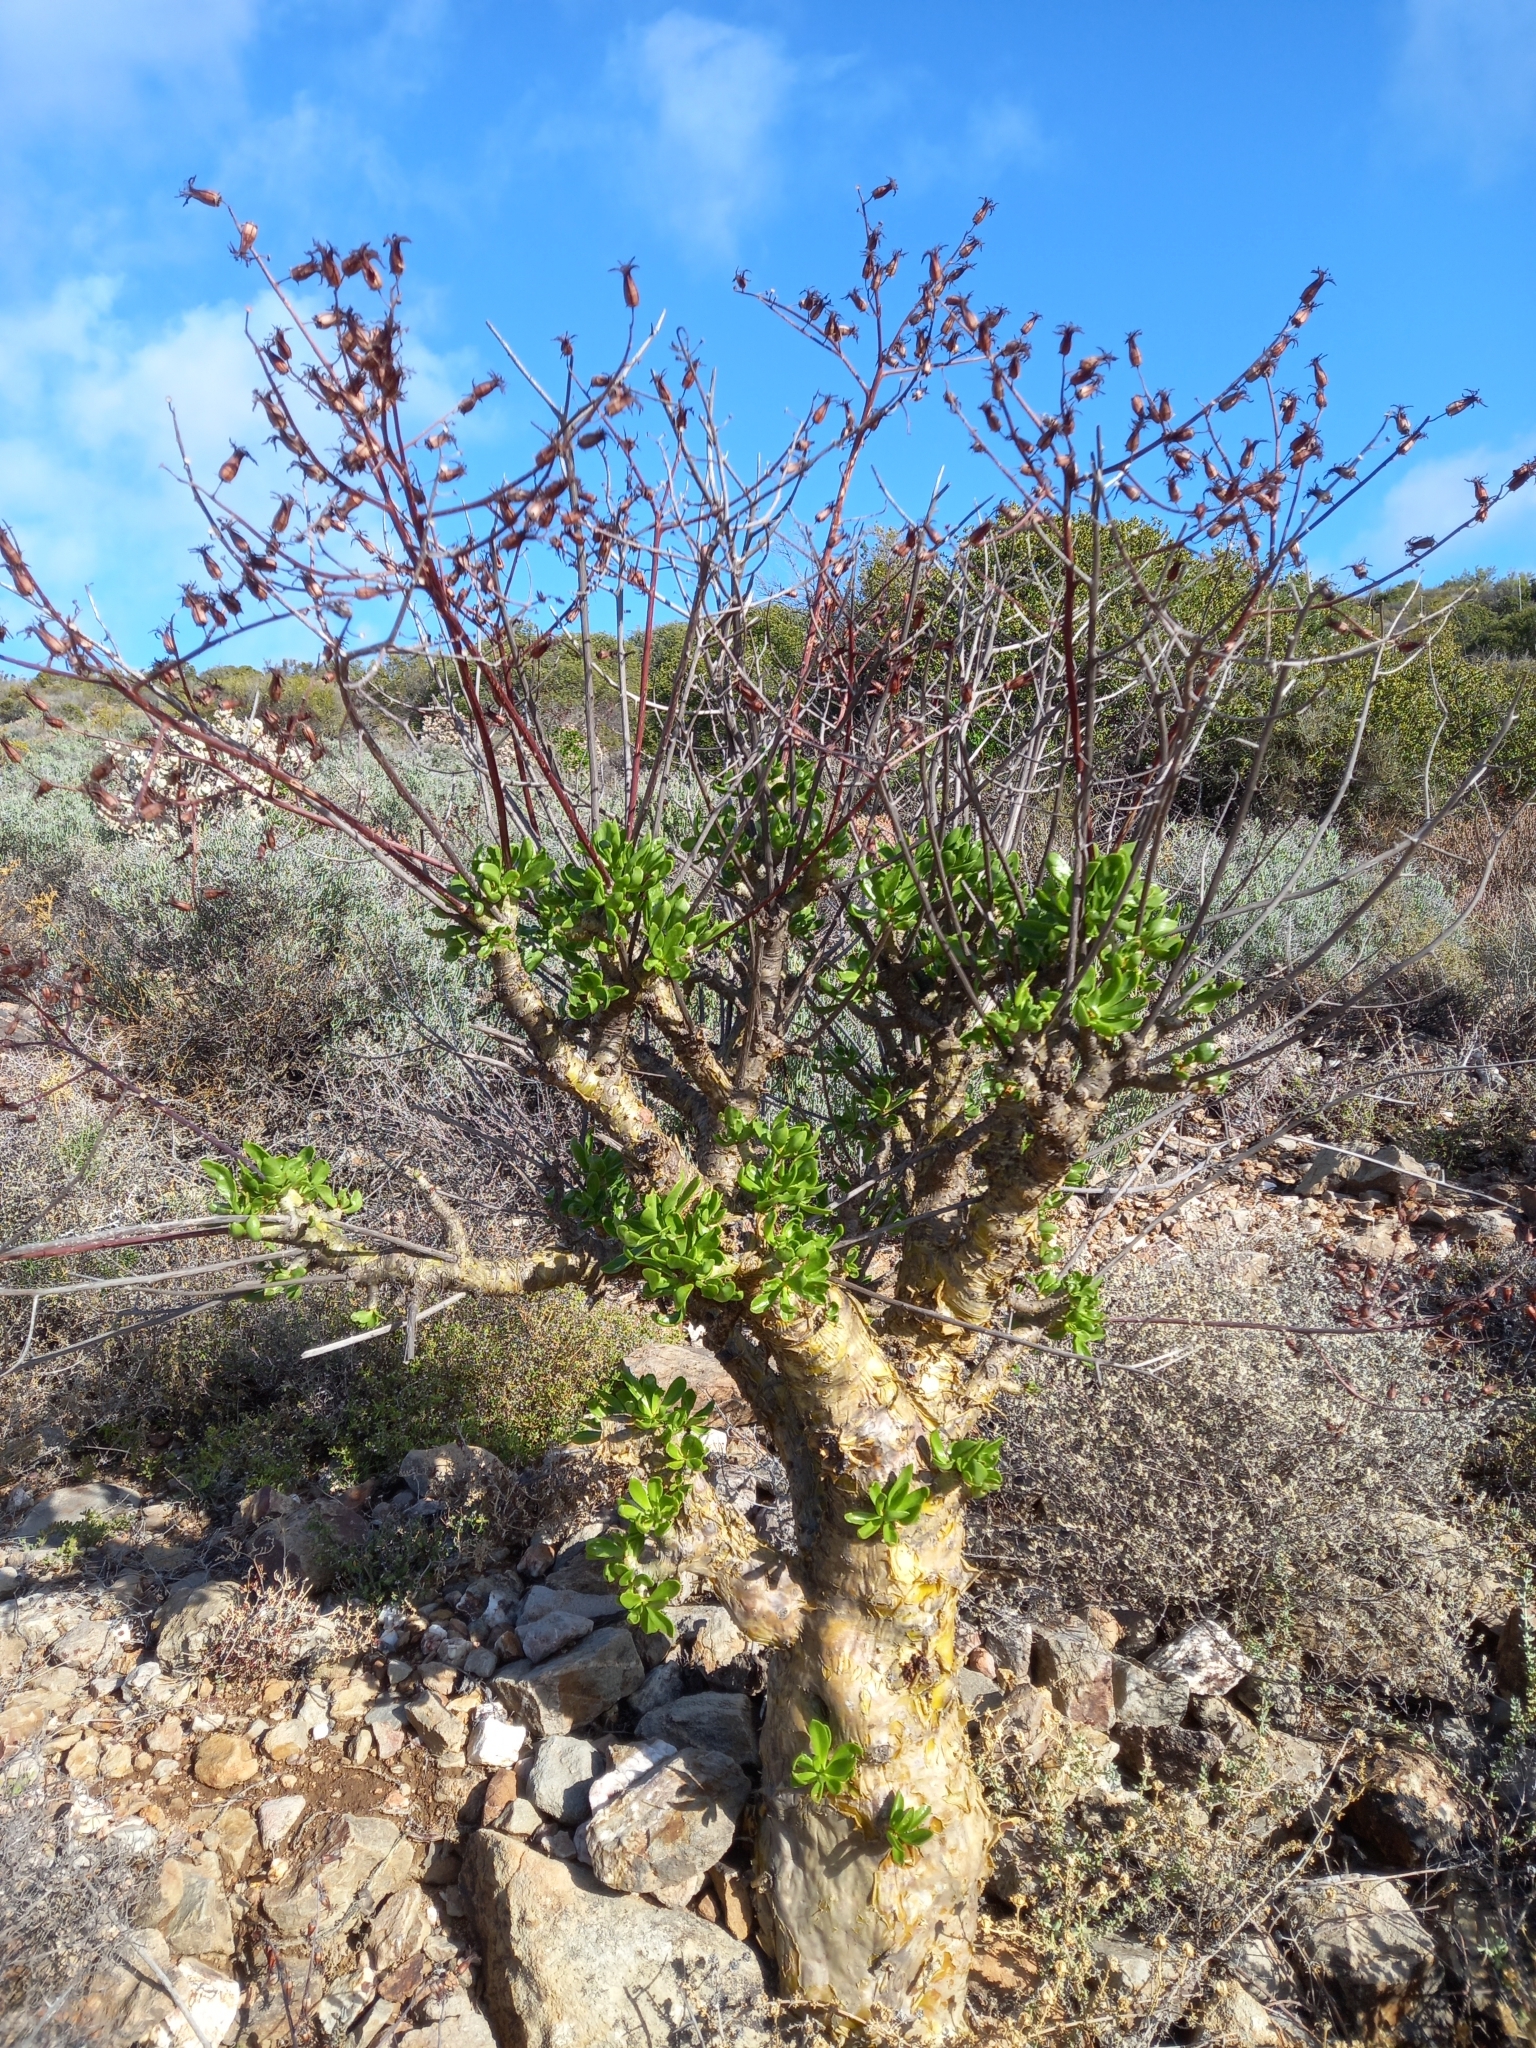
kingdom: Plantae
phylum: Tracheophyta
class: Magnoliopsida
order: Saxifragales
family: Crassulaceae
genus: Tylecodon
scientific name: Tylecodon paniculatus
